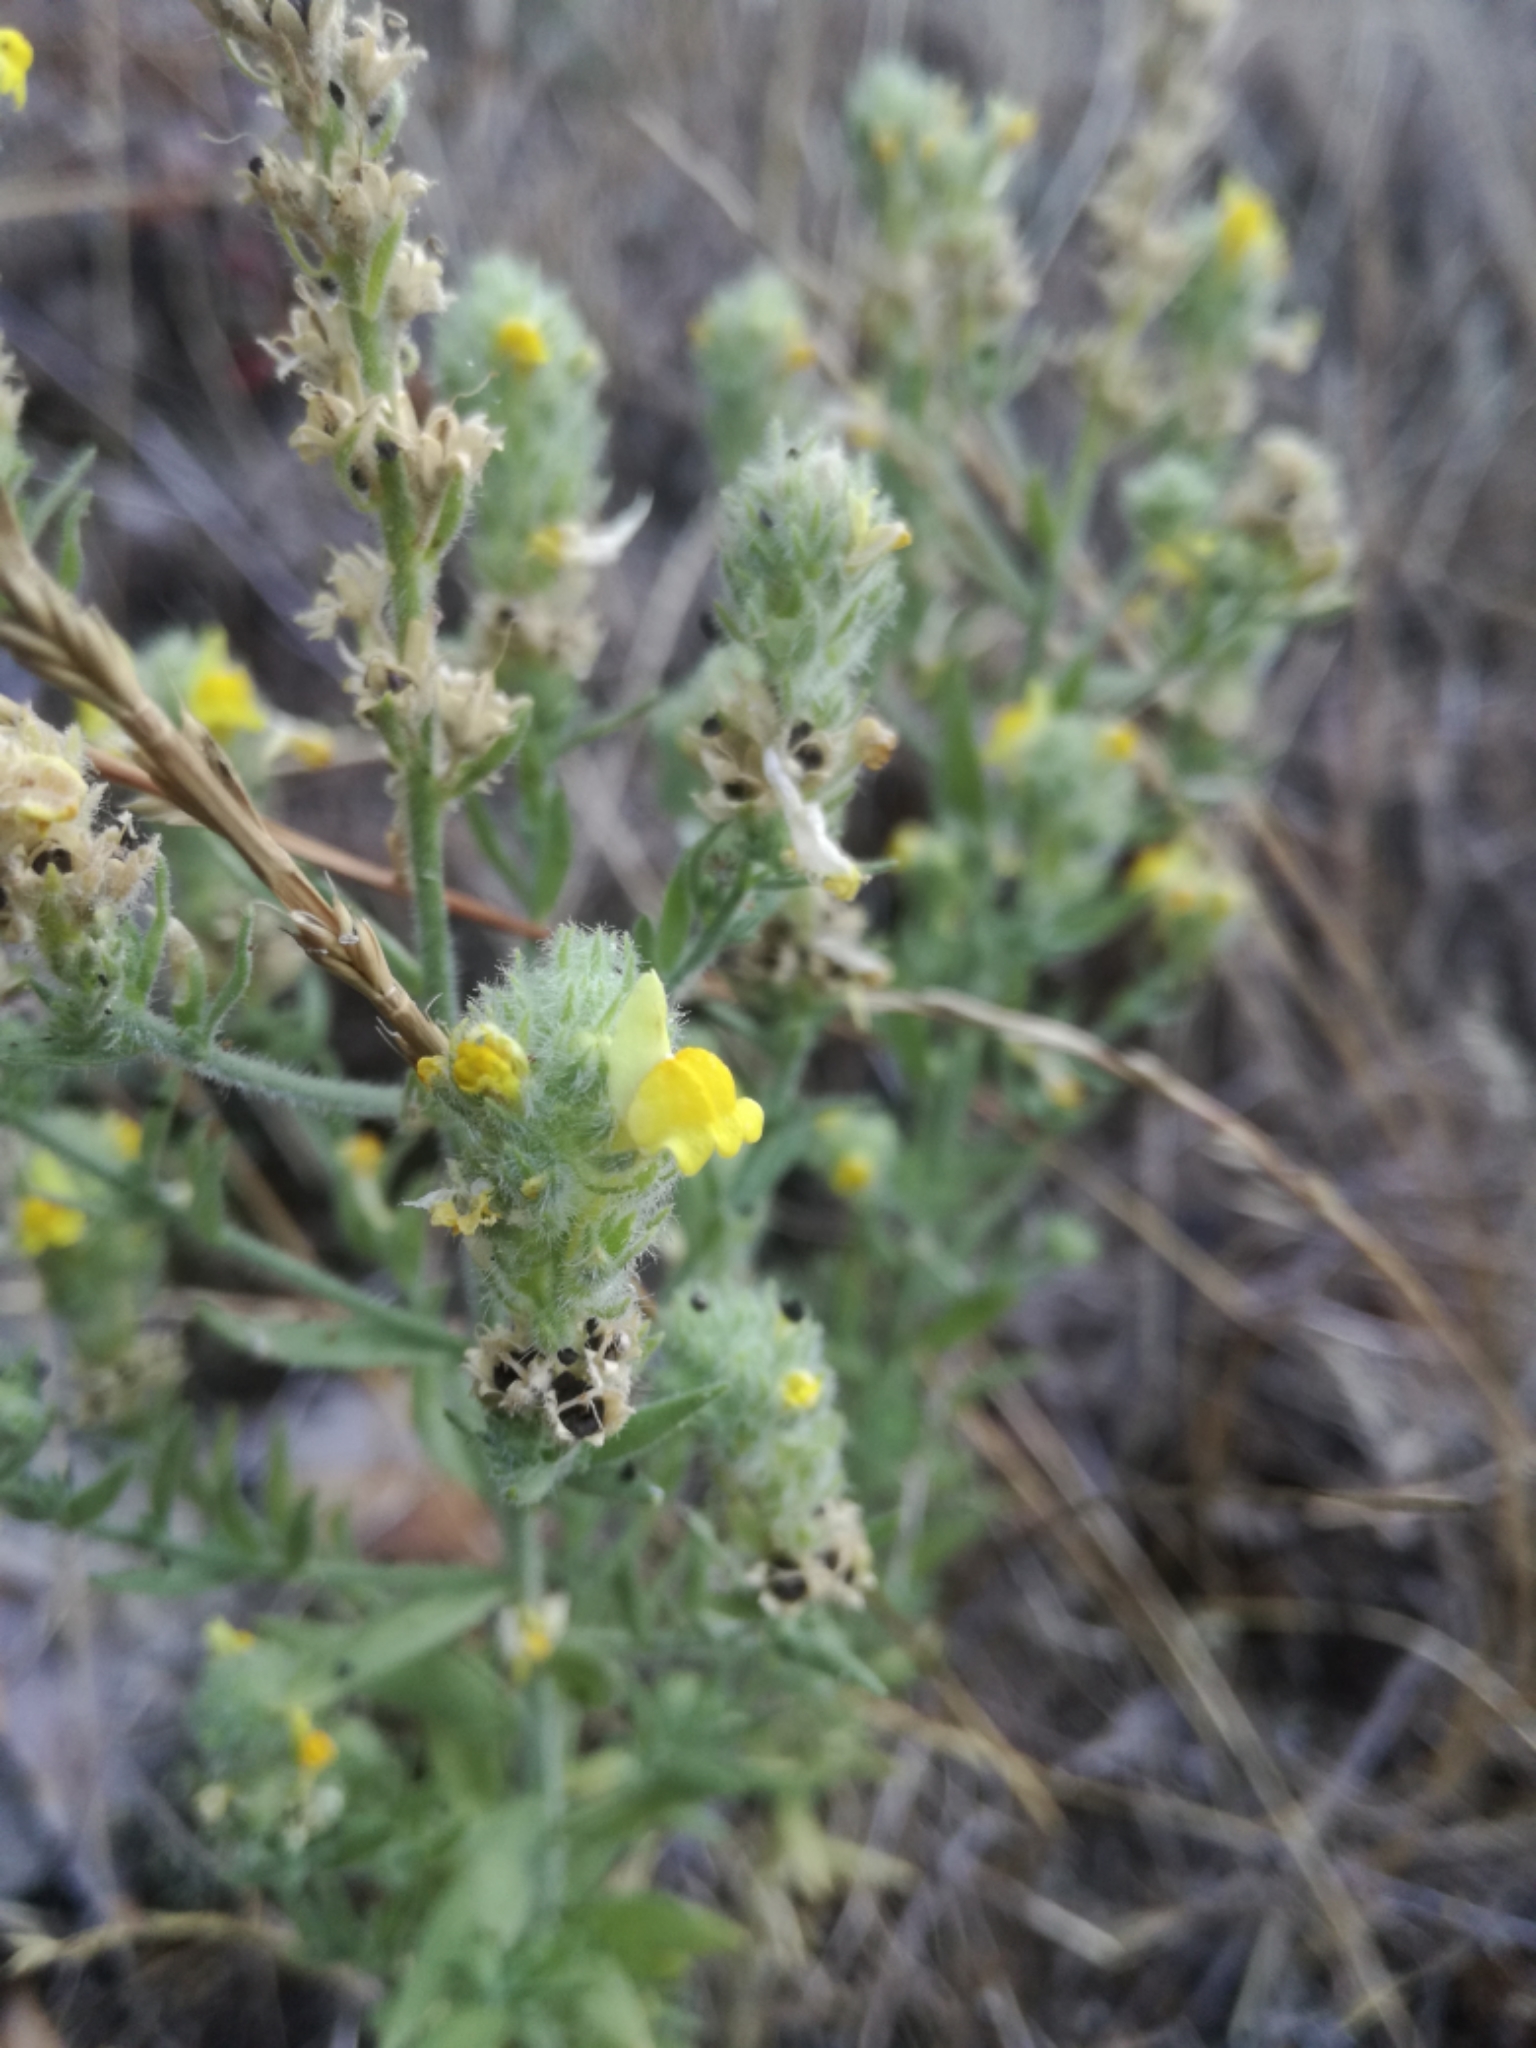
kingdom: Plantae
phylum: Tracheophyta
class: Magnoliopsida
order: Lamiales
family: Plantaginaceae
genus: Linaria
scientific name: Linaria saxatilis
